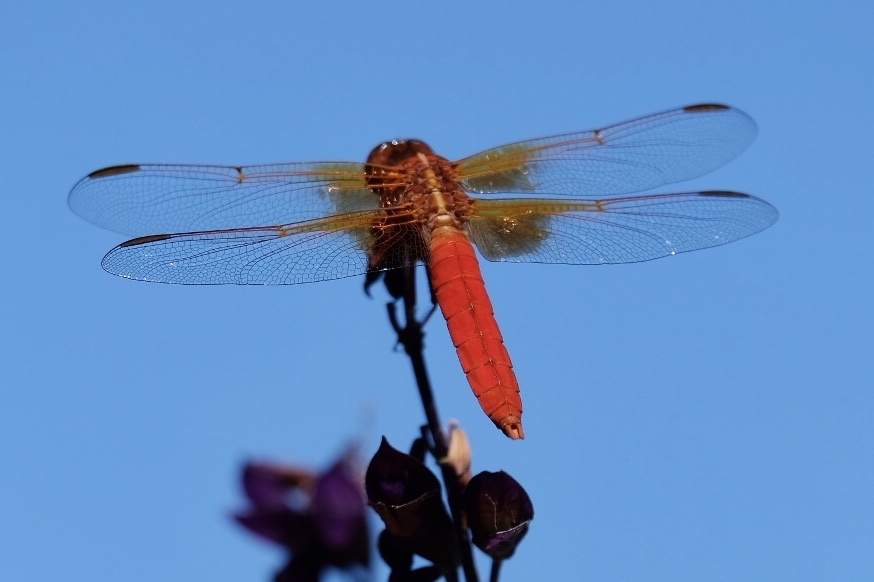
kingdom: Animalia
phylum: Arthropoda
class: Insecta
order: Odonata
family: Libellulidae
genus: Libellula
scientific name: Libellula croceipennis
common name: Neon skimmer
